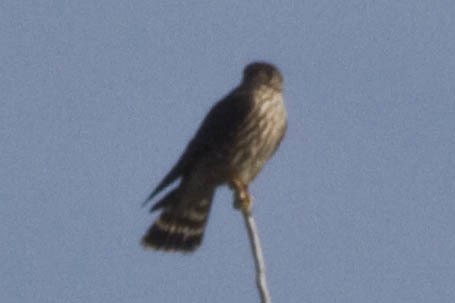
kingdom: Animalia
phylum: Chordata
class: Aves
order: Falconiformes
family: Falconidae
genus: Falco
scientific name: Falco columbarius
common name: Merlin
